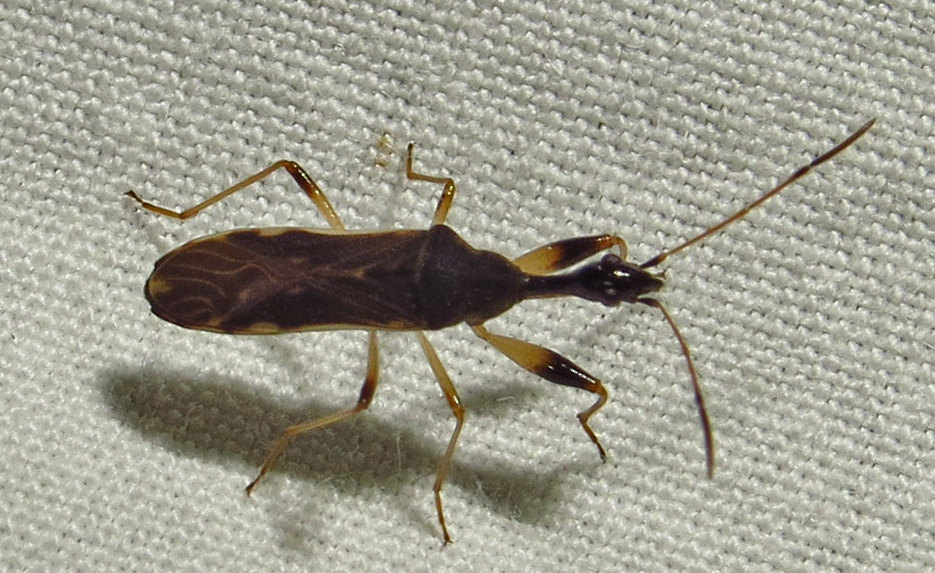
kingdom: Animalia
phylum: Arthropoda
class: Insecta
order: Hemiptera
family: Rhyparochromidae
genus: Myodocha
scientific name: Myodocha serripes
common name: Long-necked seed bug
